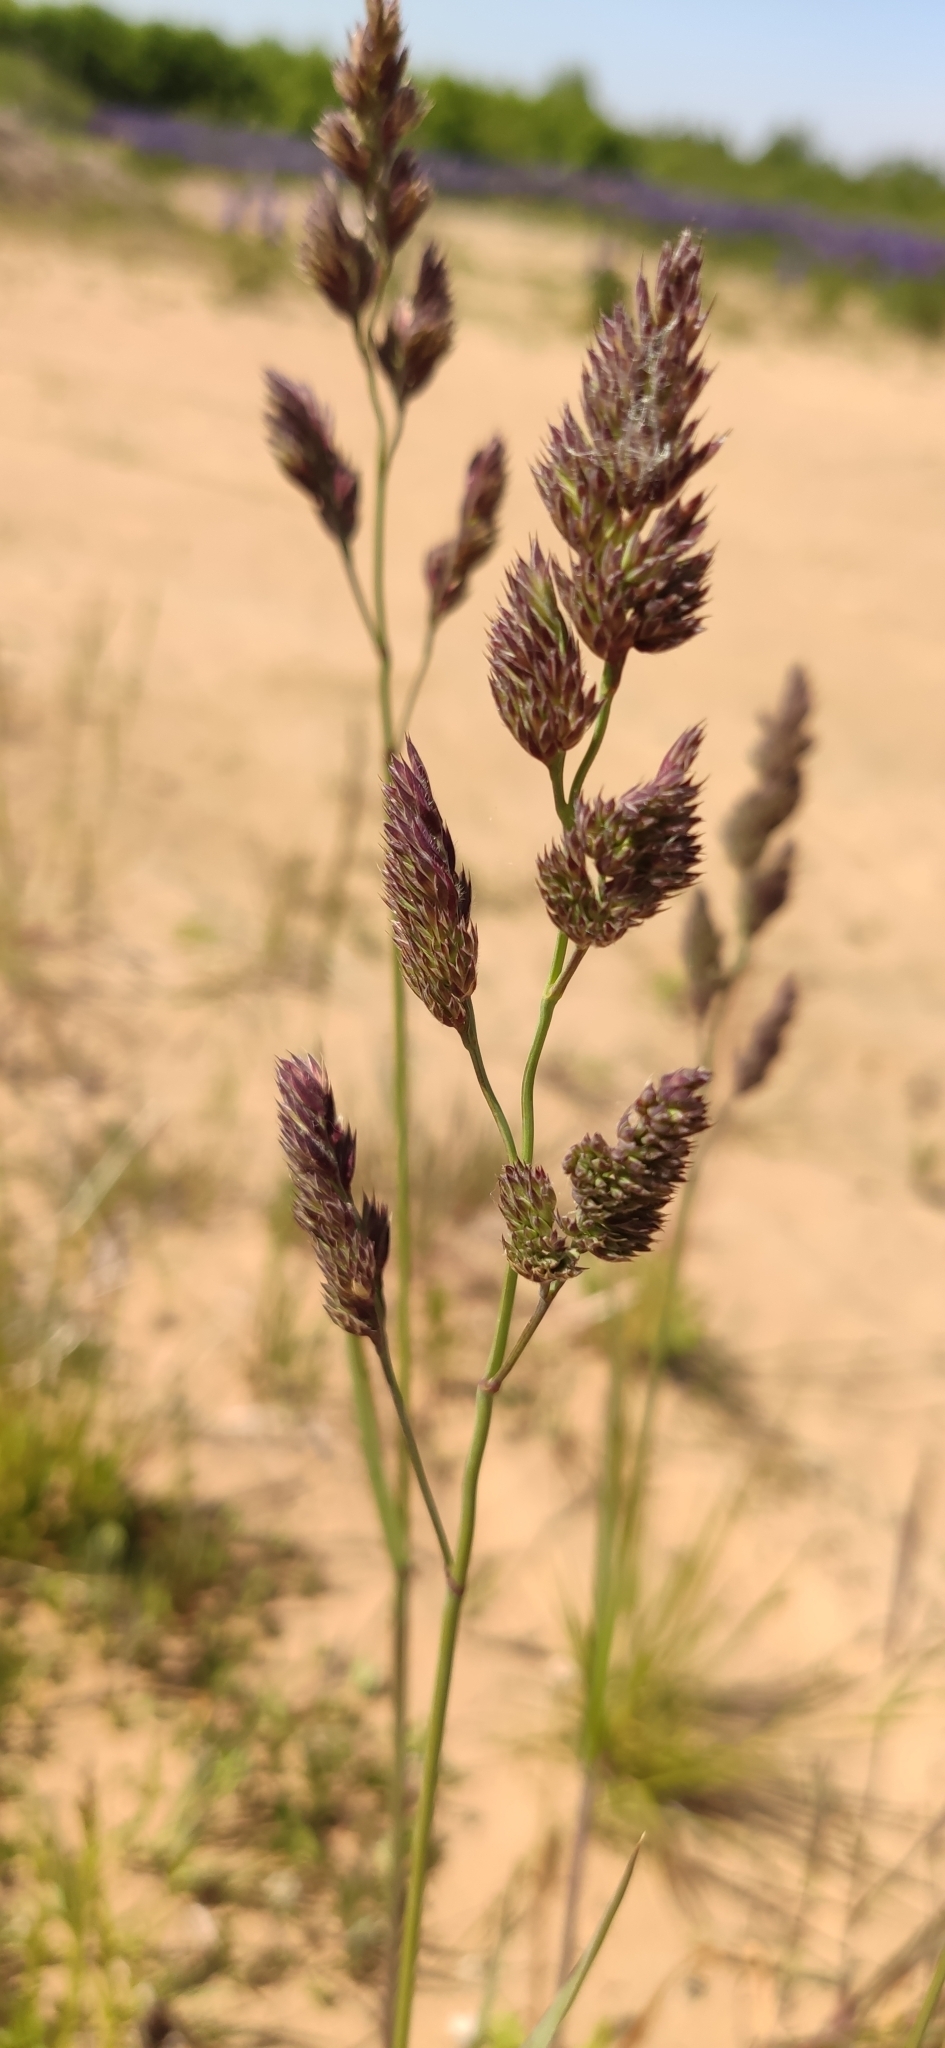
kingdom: Plantae
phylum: Tracheophyta
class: Liliopsida
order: Poales
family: Poaceae
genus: Dactylis
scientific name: Dactylis glomerata
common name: Orchardgrass
